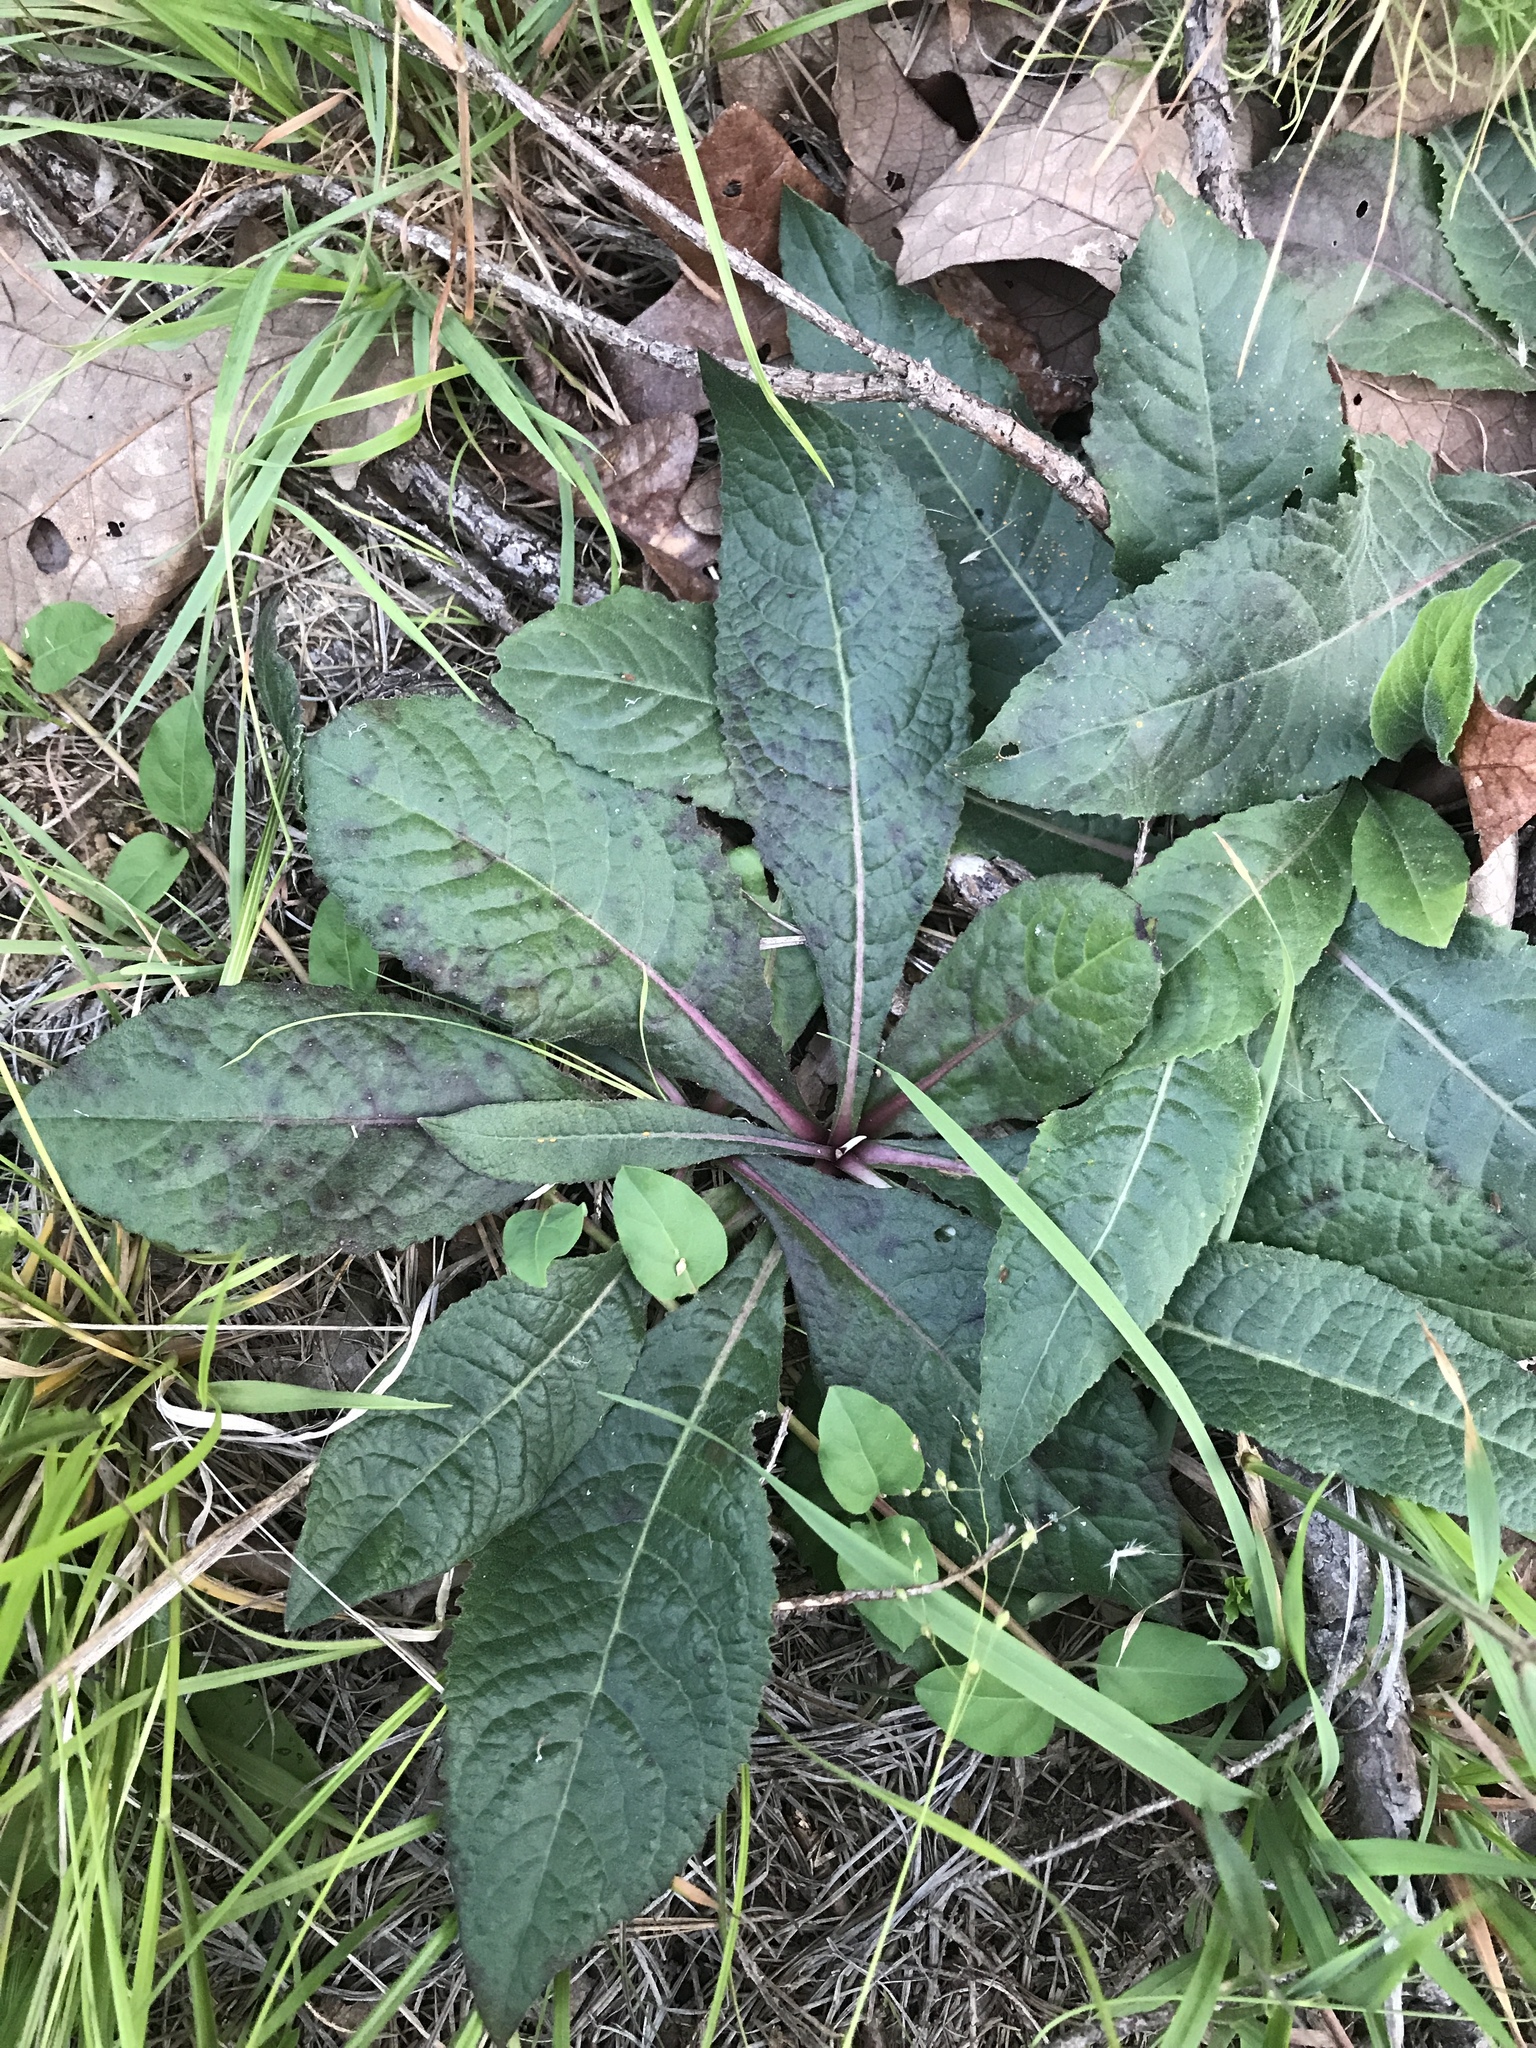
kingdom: Plantae
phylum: Tracheophyta
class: Magnoliopsida
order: Asterales
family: Asteraceae
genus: Vernonia
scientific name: Vernonia acaulis
